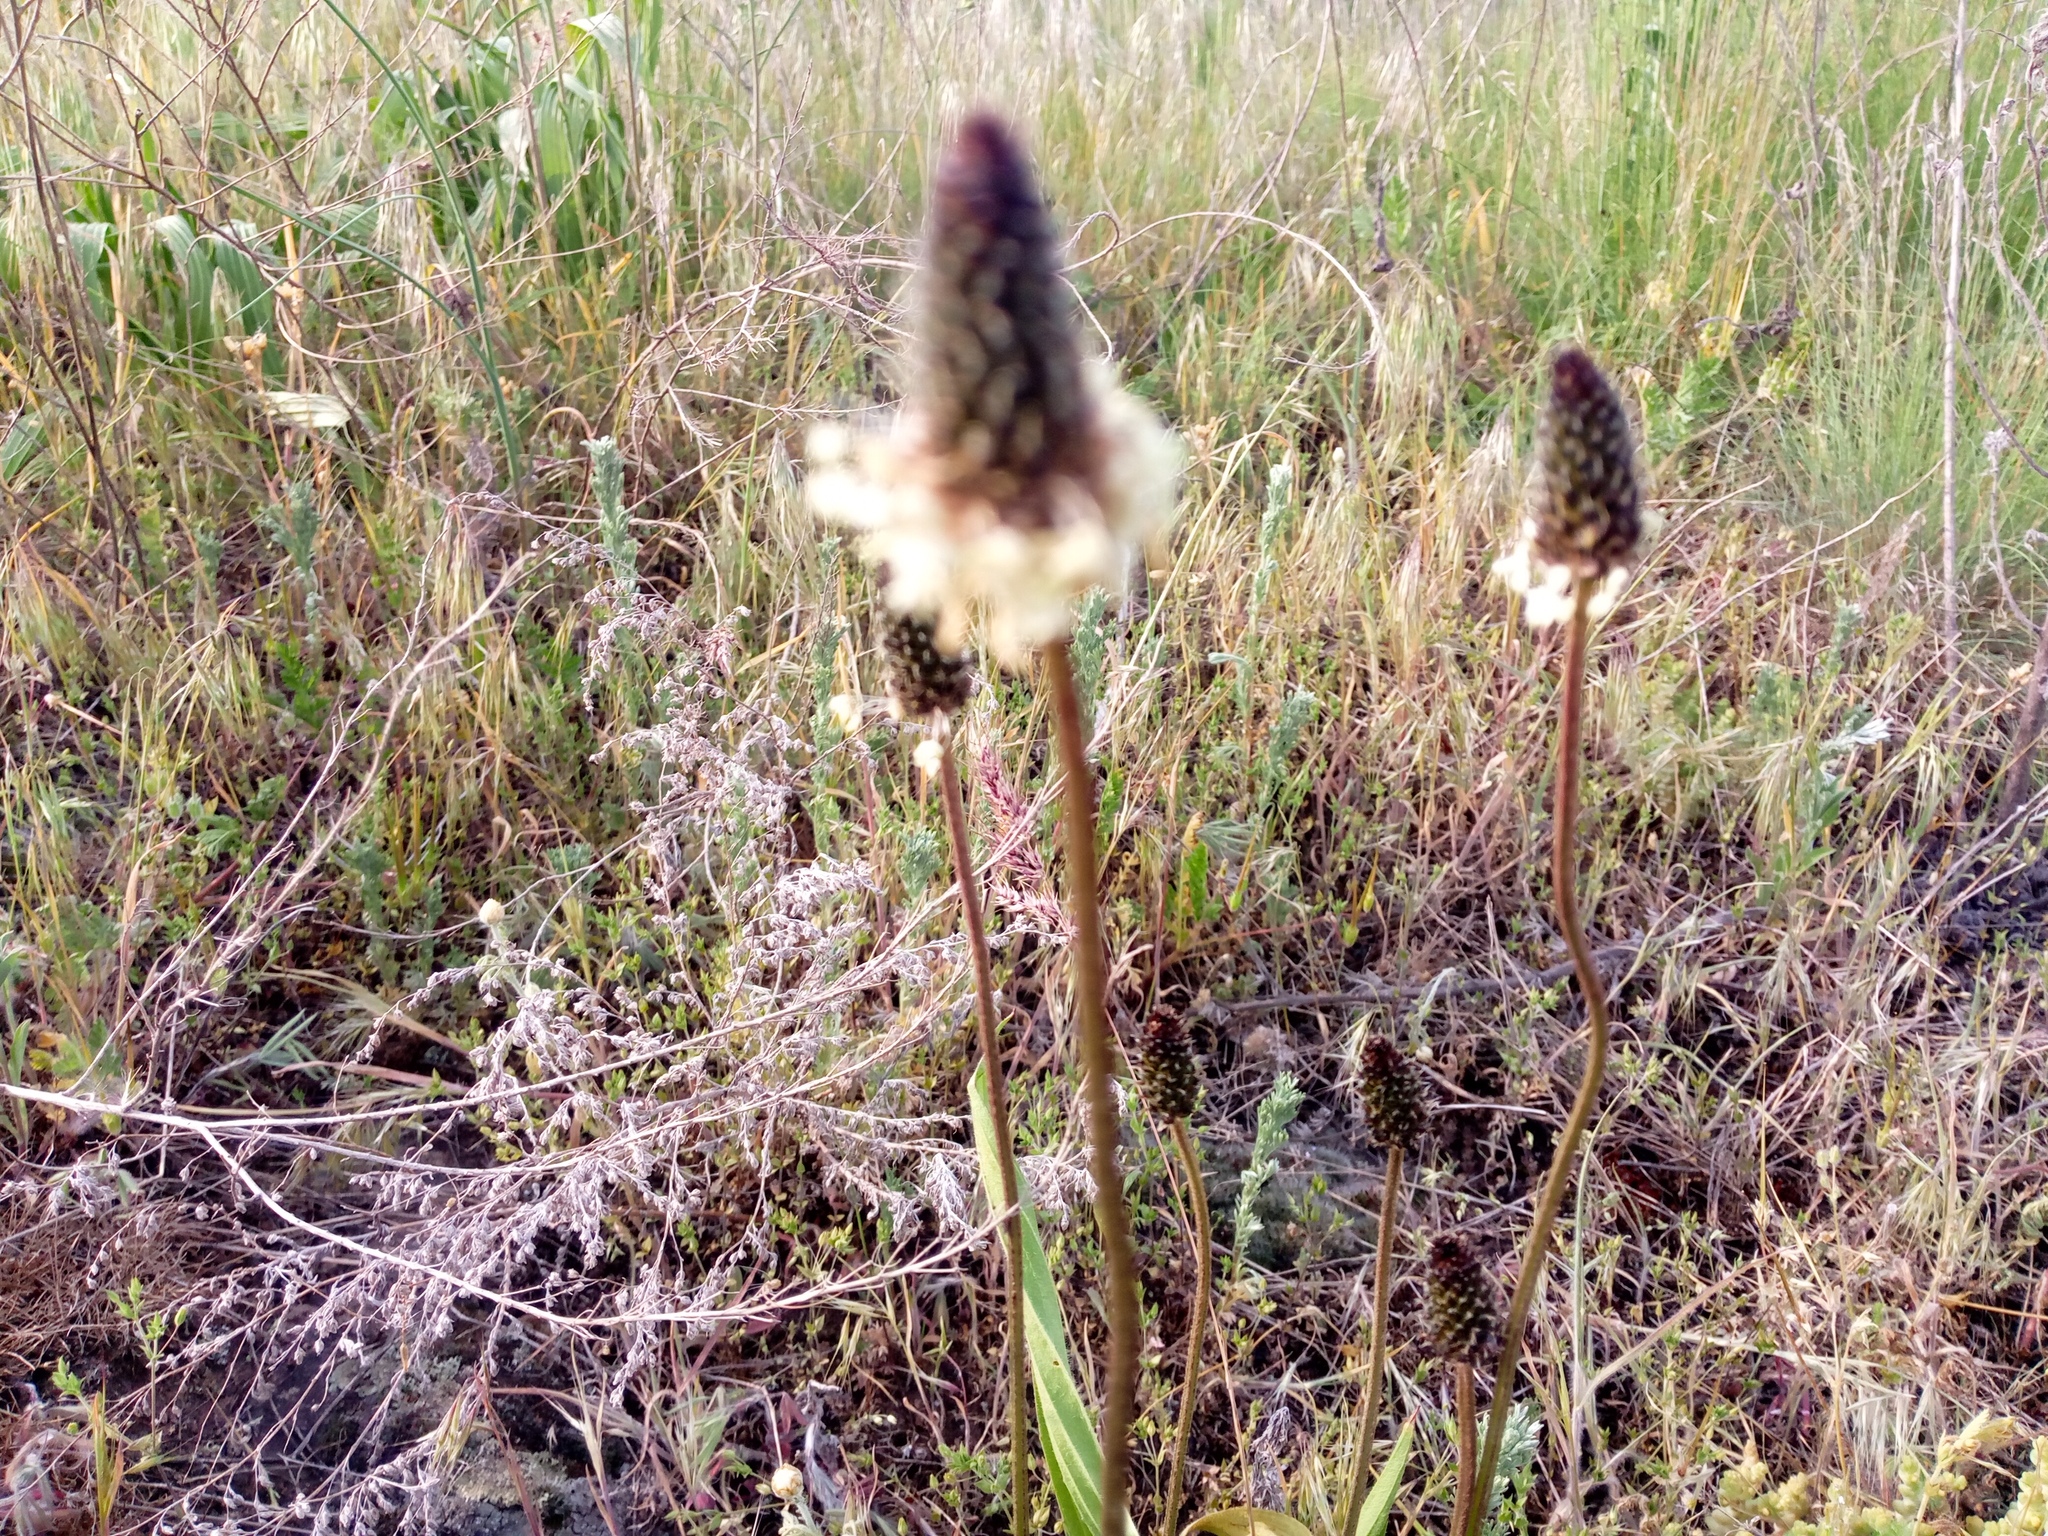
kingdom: Plantae
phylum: Tracheophyta
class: Magnoliopsida
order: Lamiales
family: Plantaginaceae
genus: Plantago
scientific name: Plantago lanceolata
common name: Ribwort plantain
